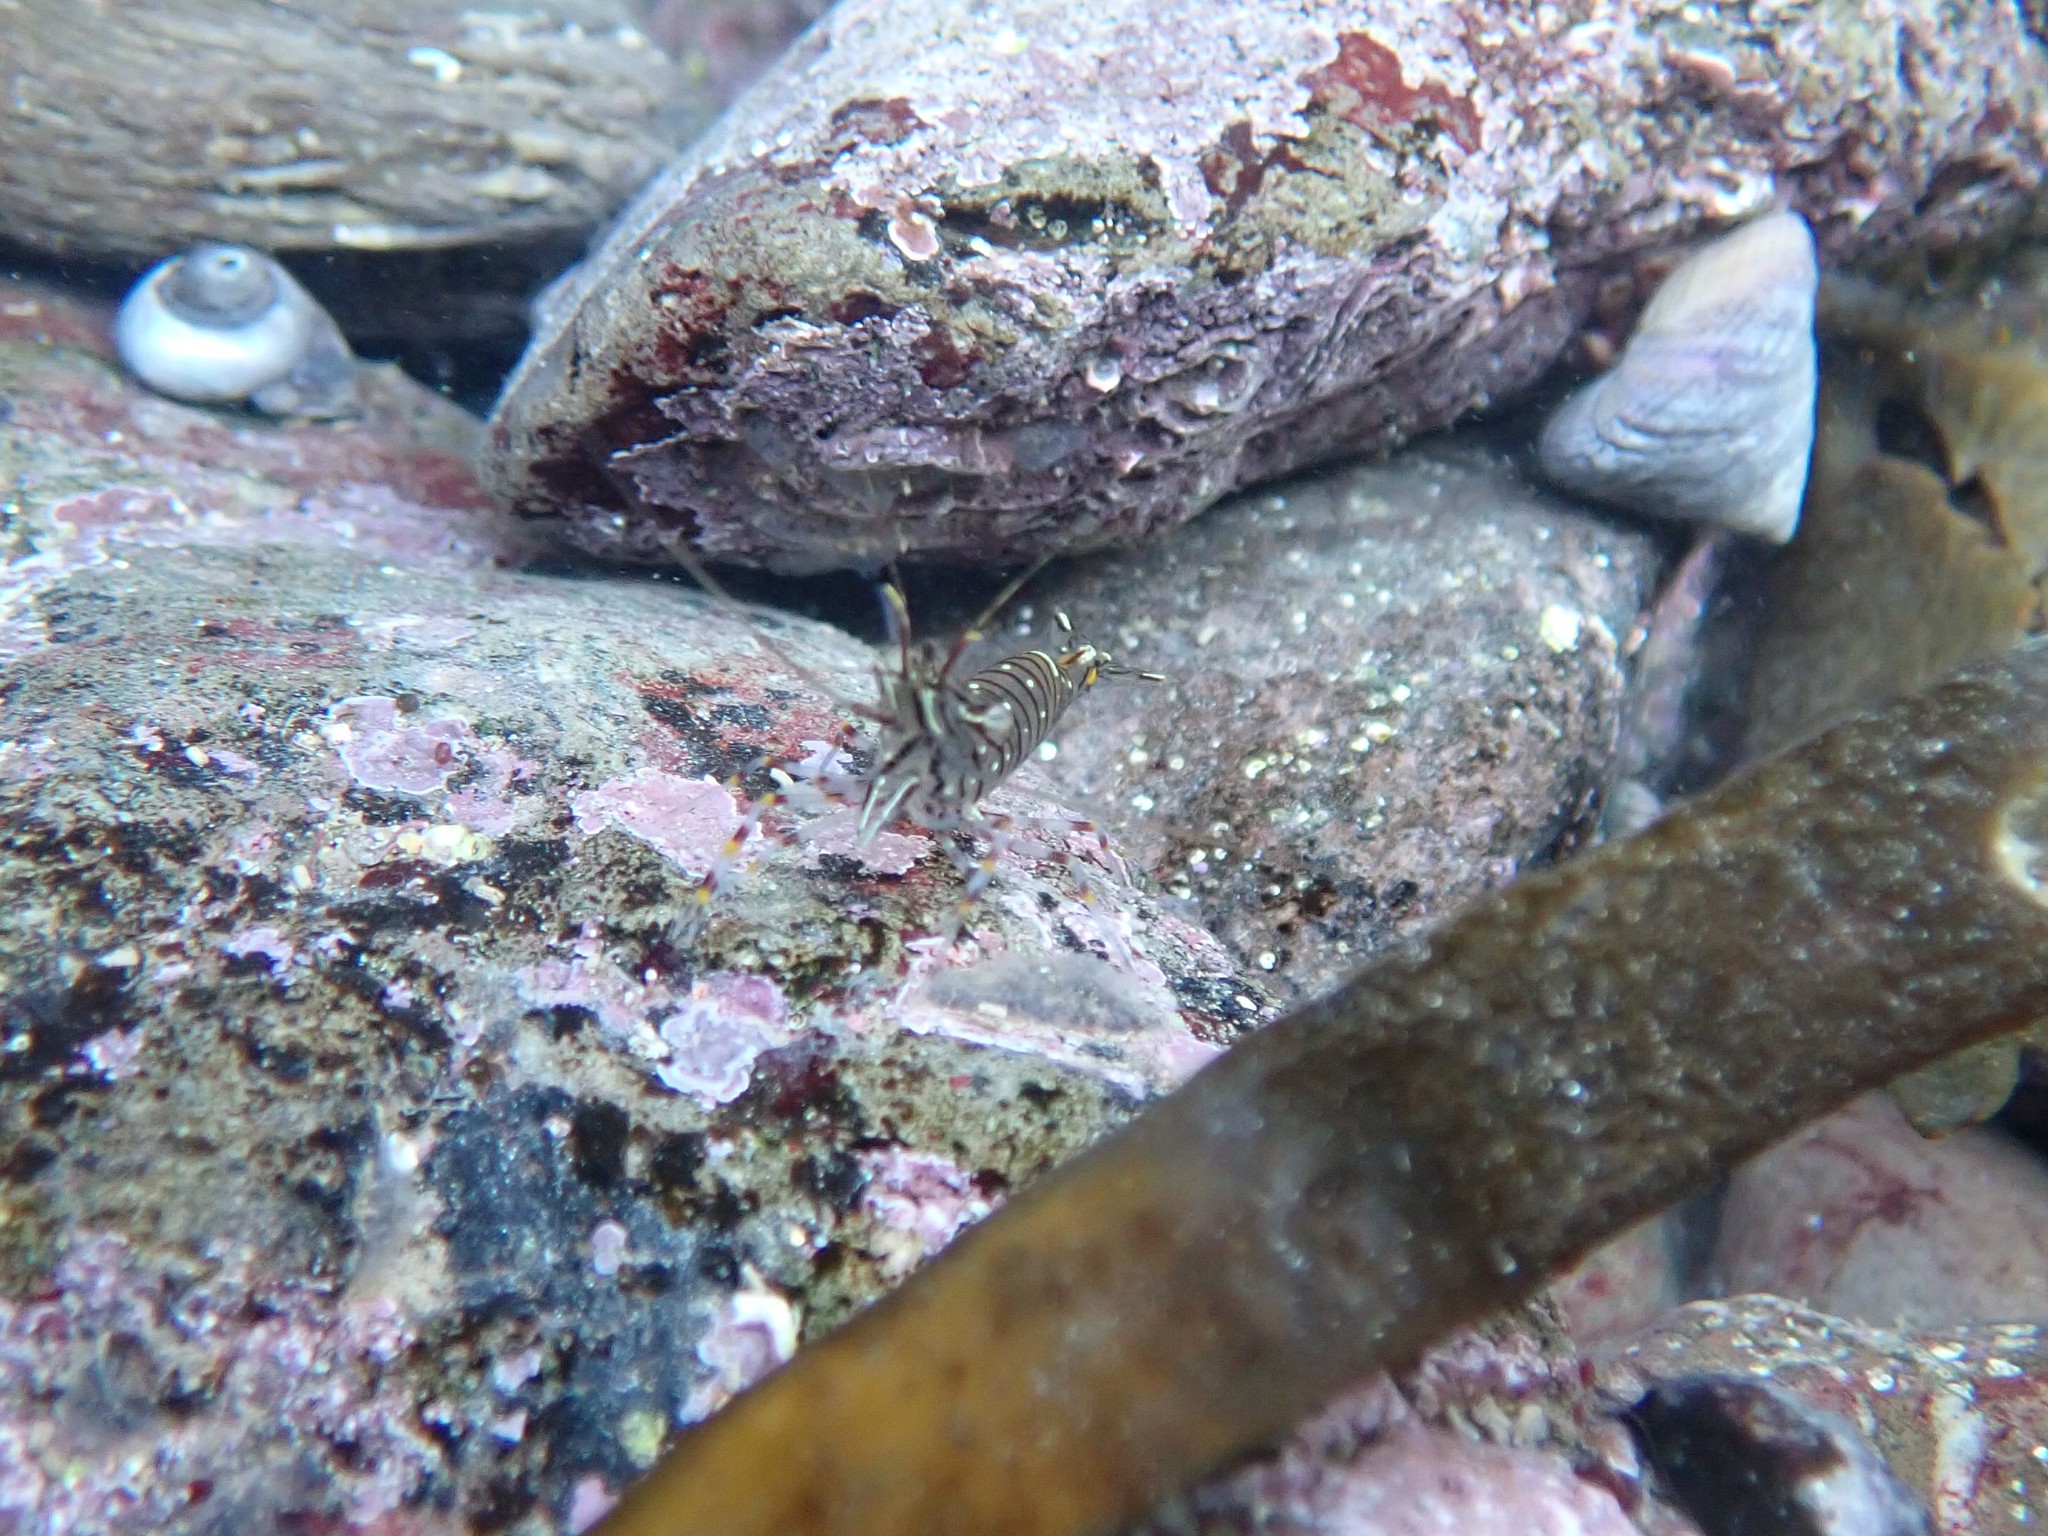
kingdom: Animalia
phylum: Arthropoda
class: Malacostraca
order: Decapoda
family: Palaemonidae
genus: Palaemon
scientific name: Palaemon serratus
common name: Common prawn
